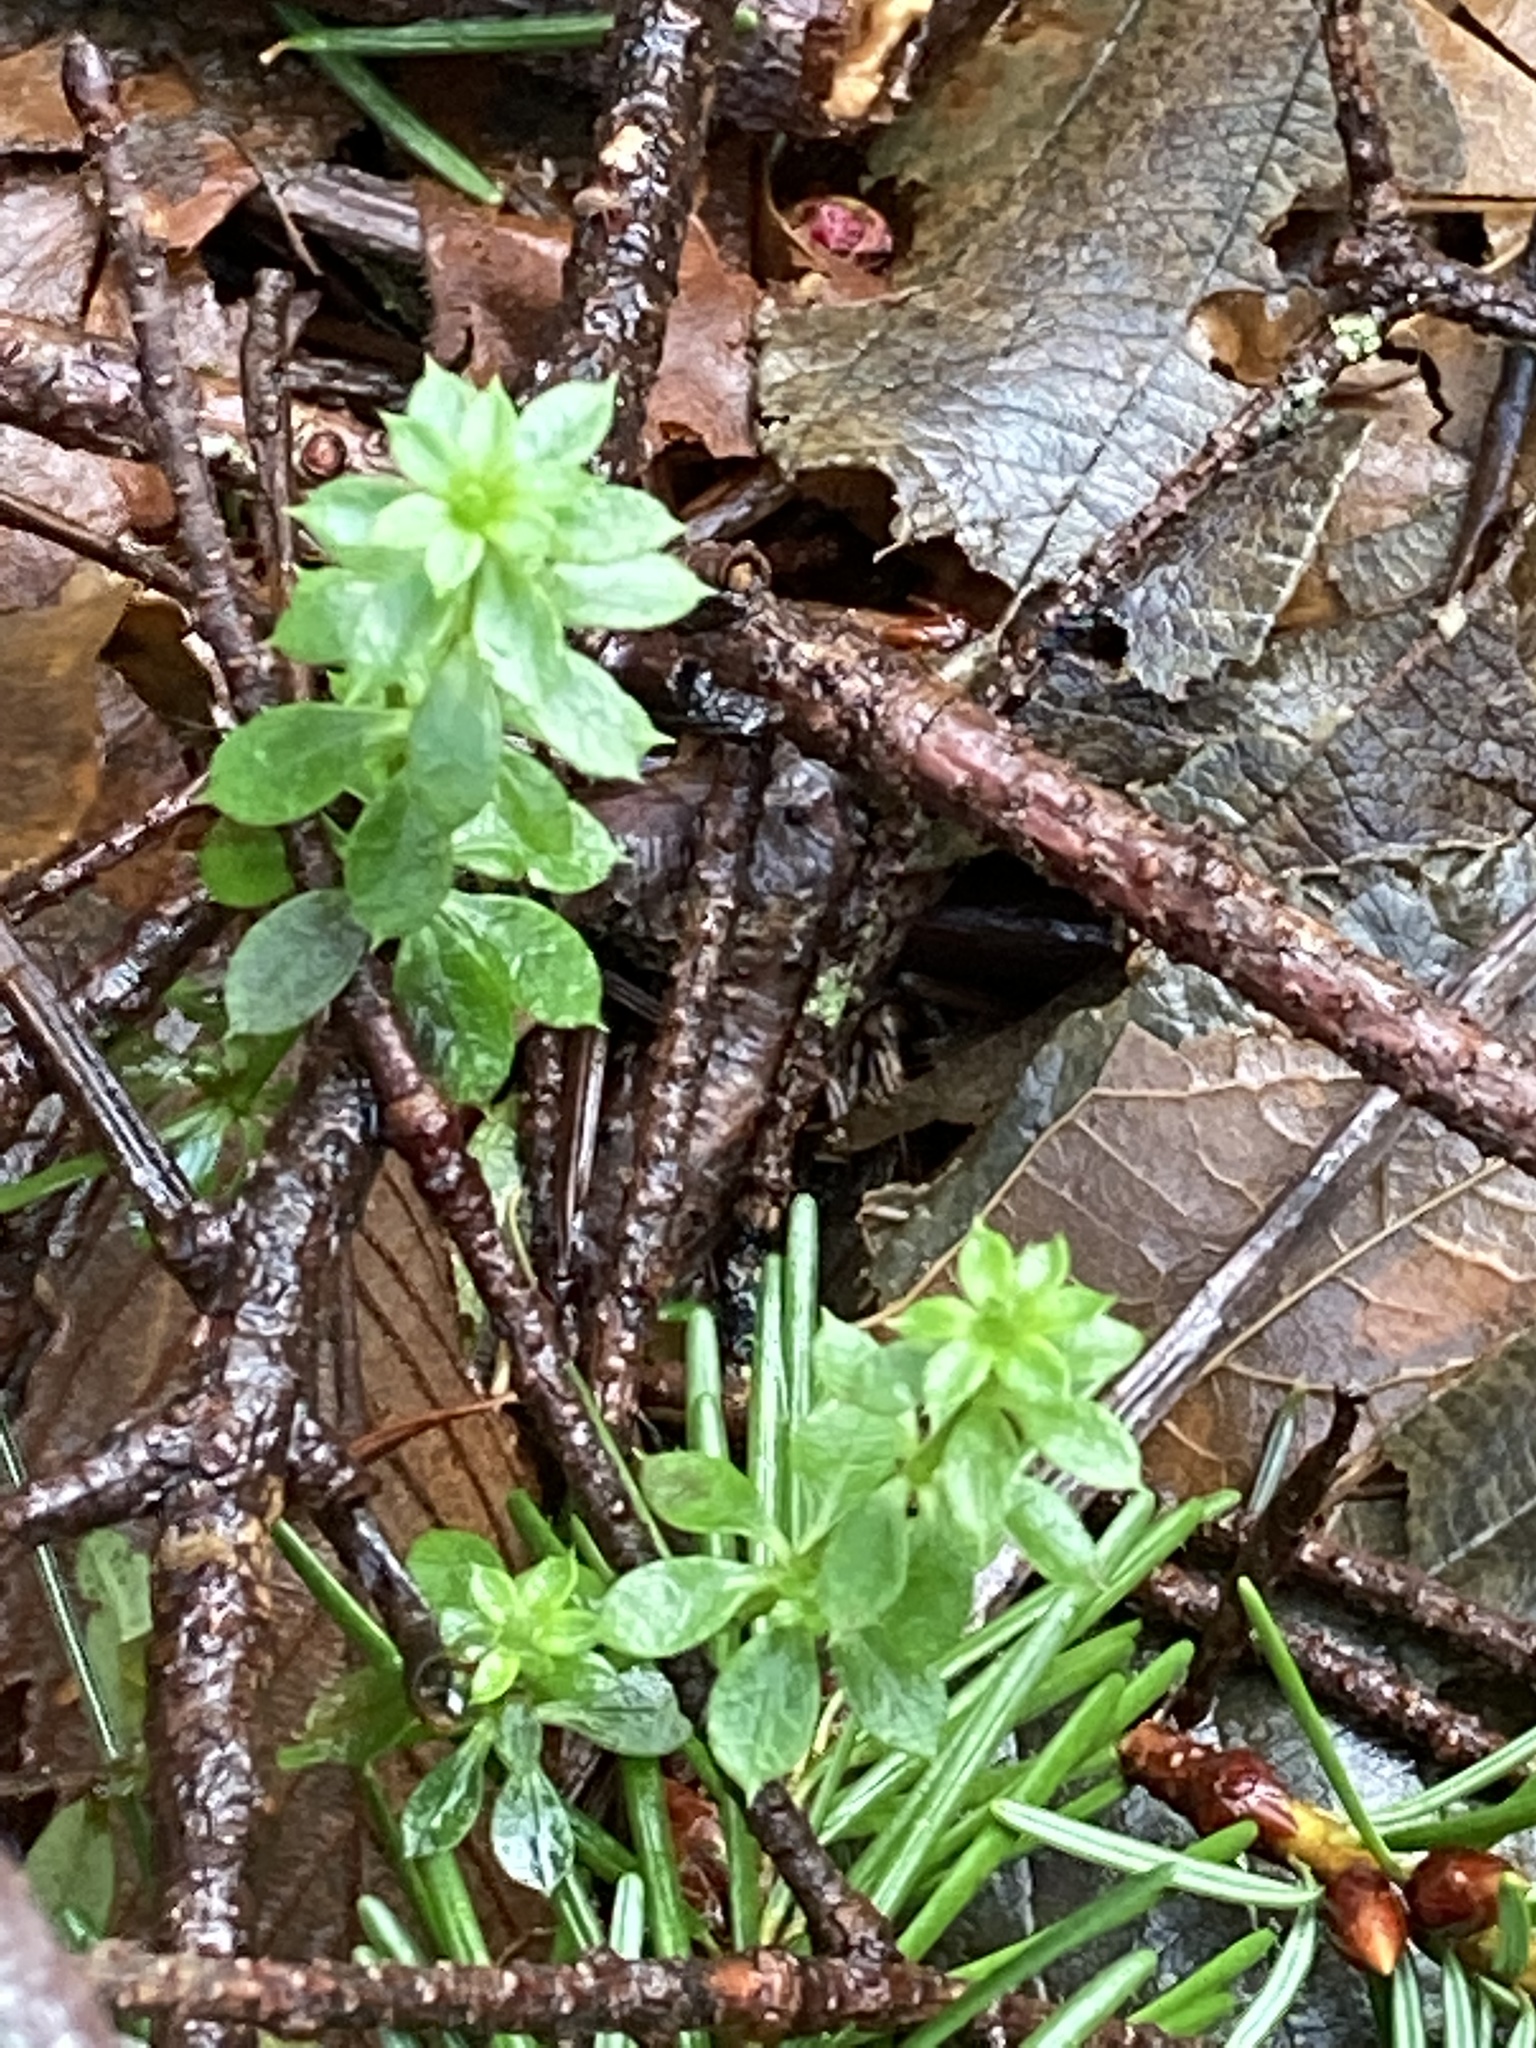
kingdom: Plantae
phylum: Tracheophyta
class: Magnoliopsida
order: Gentianales
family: Rubiaceae
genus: Galium
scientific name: Galium triflorum
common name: Fragrant bedstraw
